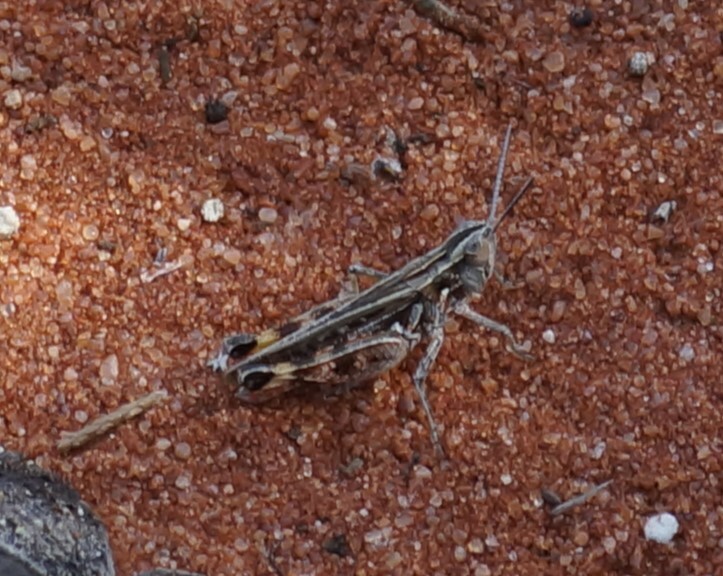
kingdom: Animalia
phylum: Arthropoda
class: Insecta
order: Orthoptera
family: Acrididae
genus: Azelota
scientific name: Azelota
